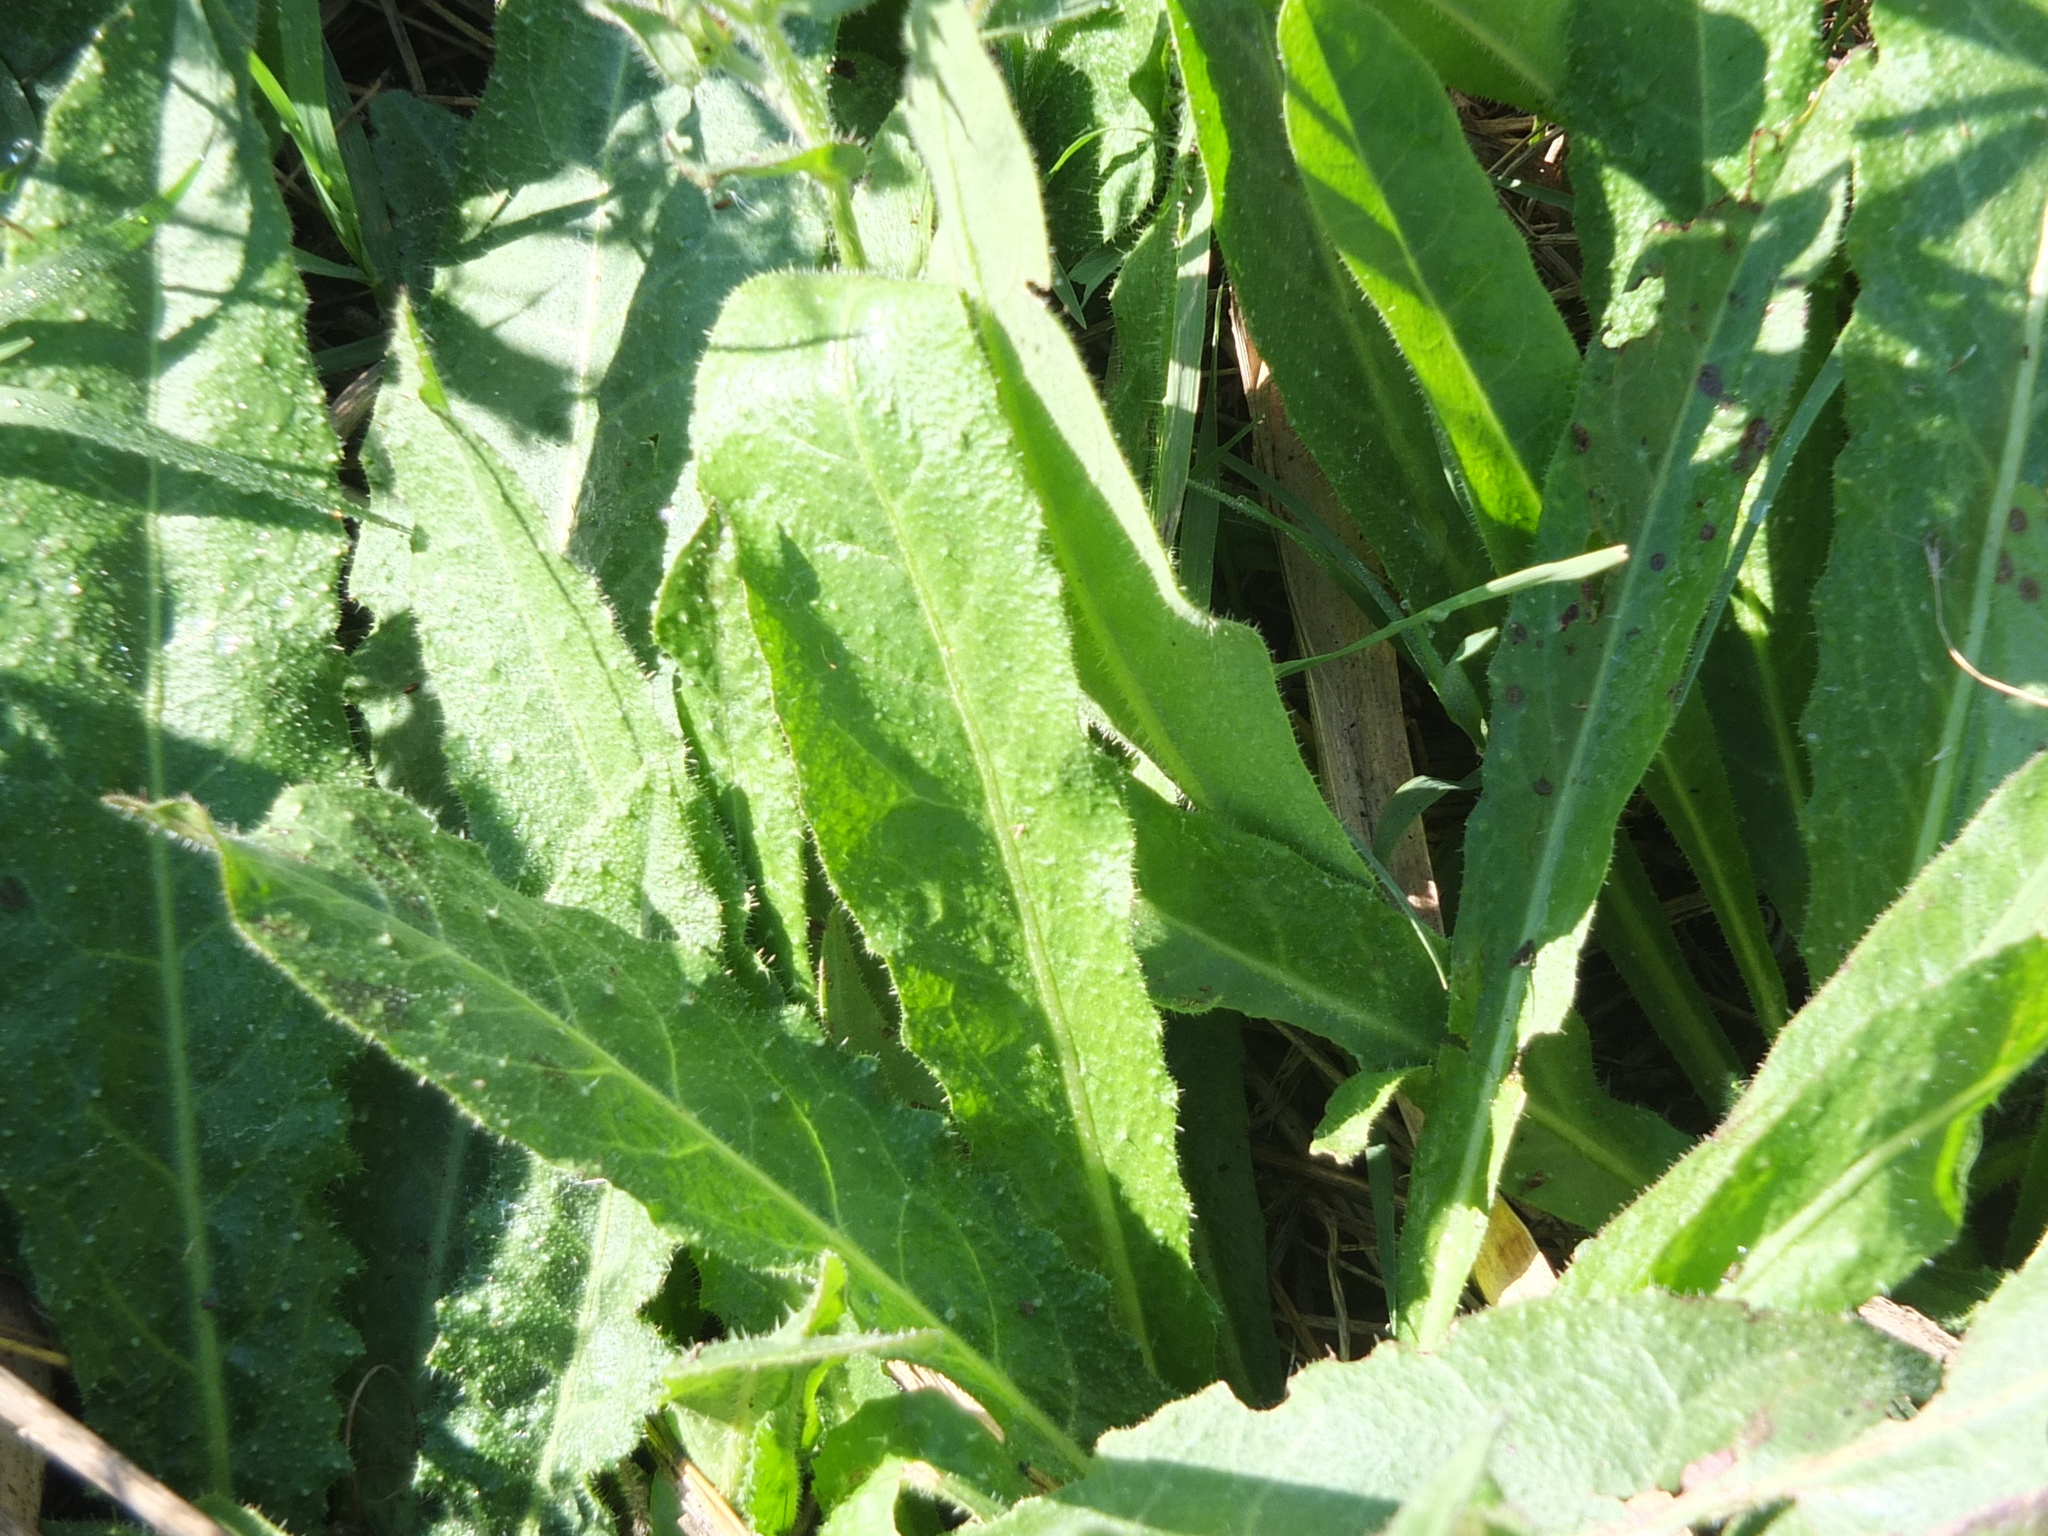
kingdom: Plantae
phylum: Tracheophyta
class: Magnoliopsida
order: Asterales
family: Asteraceae
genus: Helminthotheca
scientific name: Helminthotheca echioides
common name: Ox-tongue
